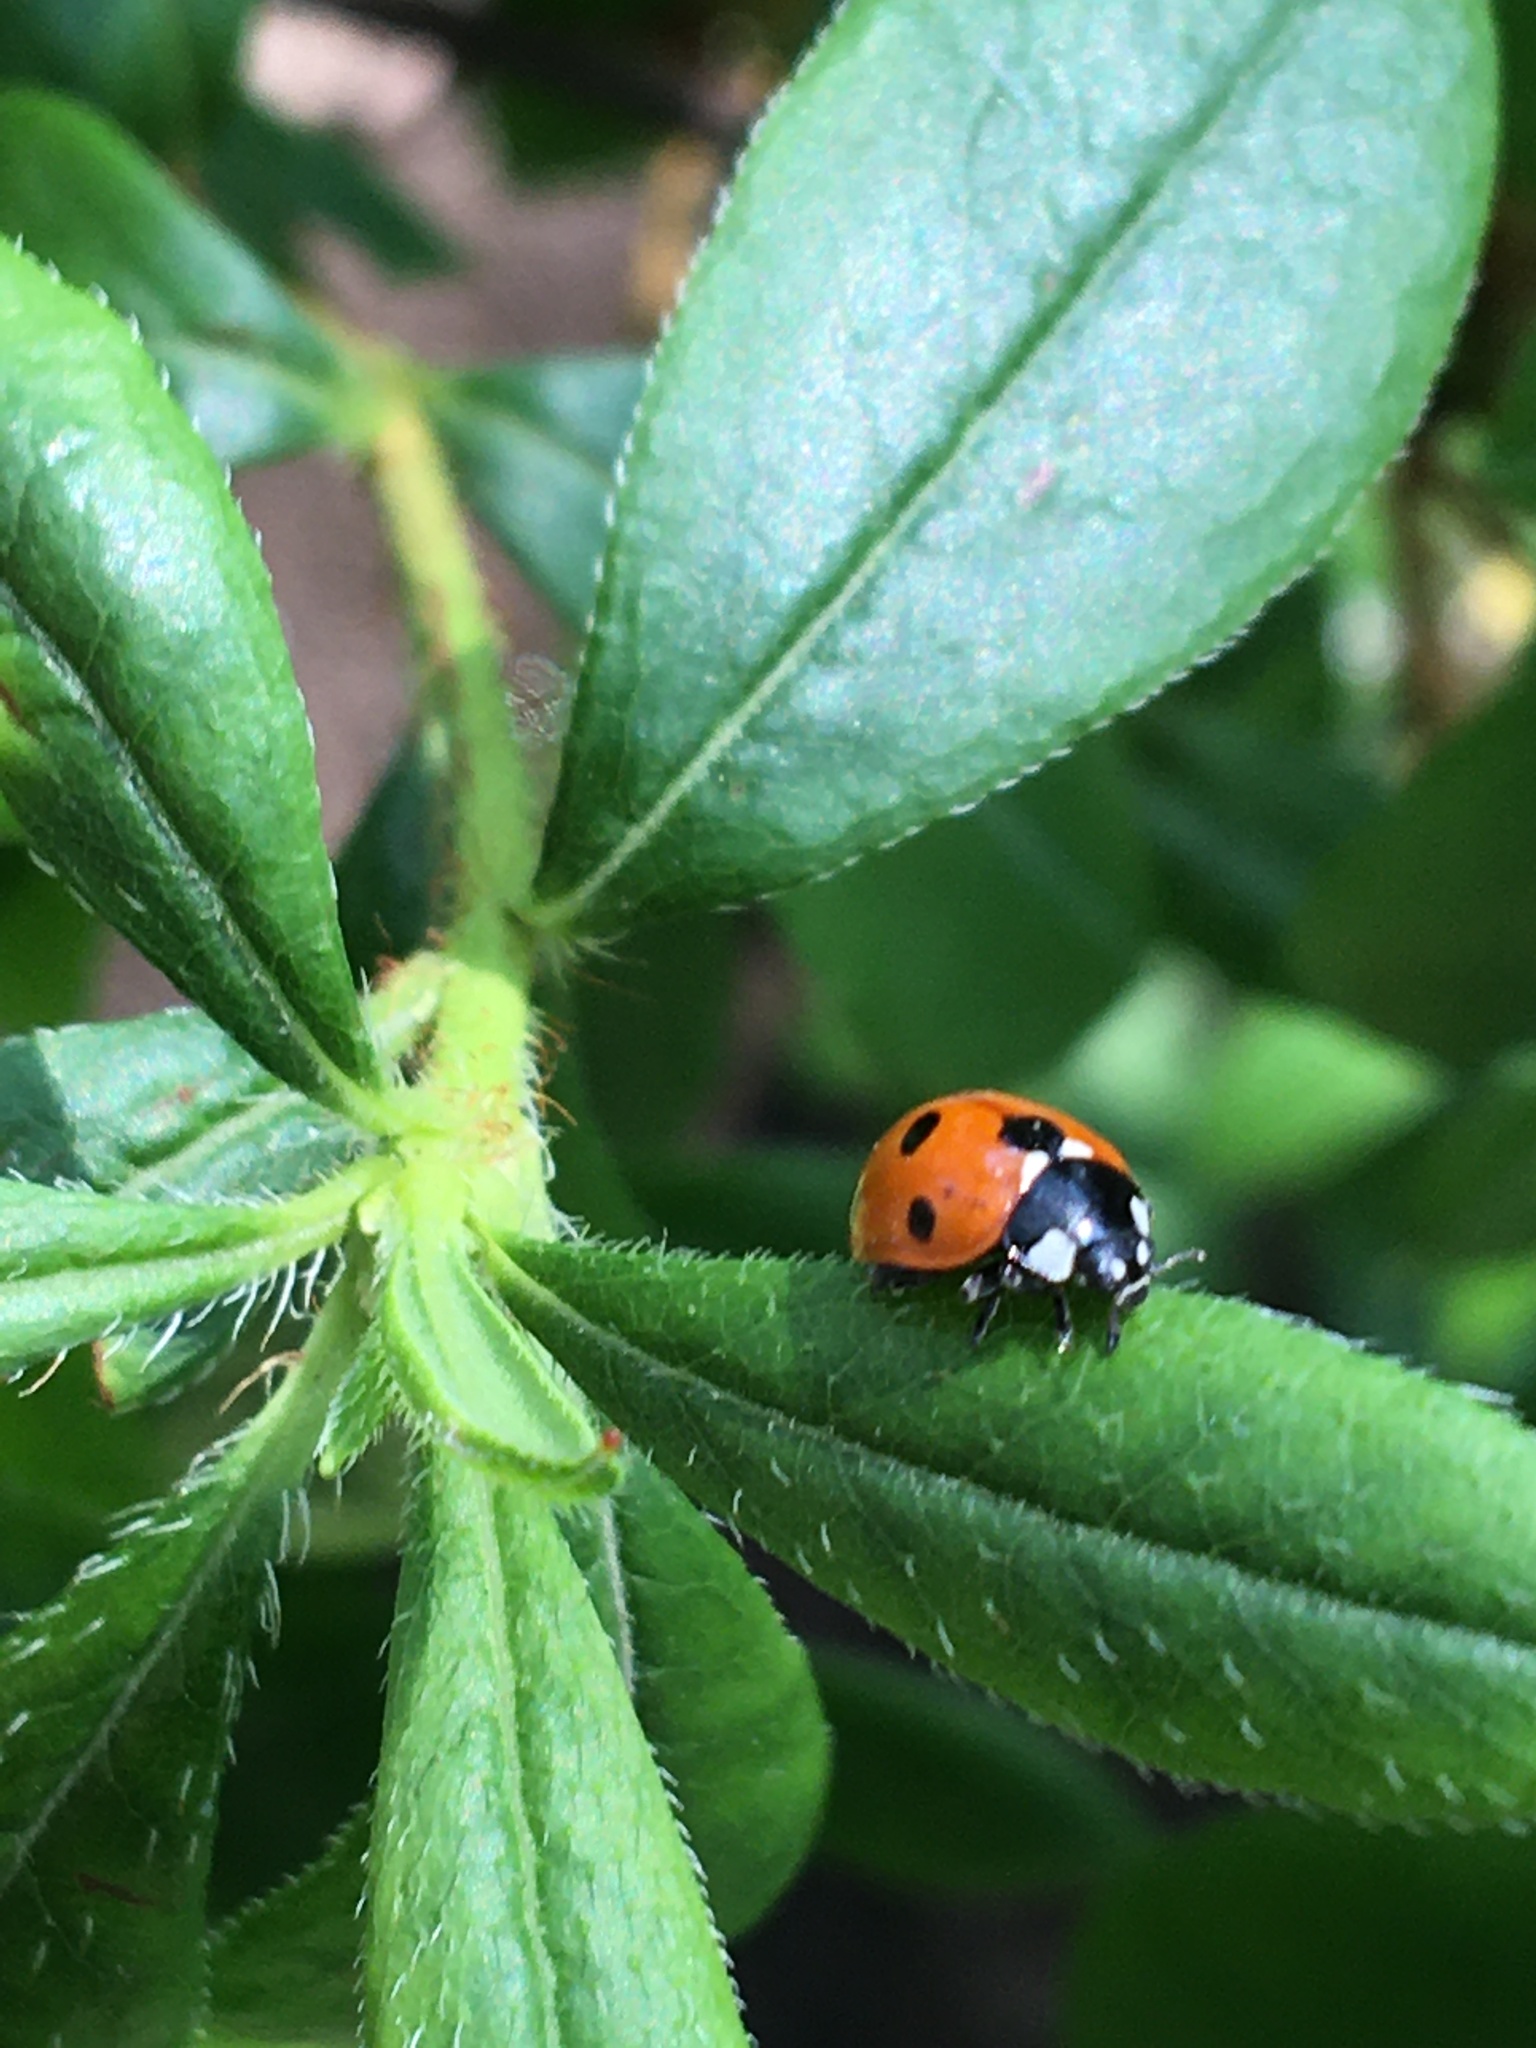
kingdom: Animalia
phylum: Arthropoda
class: Insecta
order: Coleoptera
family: Coccinellidae
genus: Coccinella
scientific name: Coccinella septempunctata
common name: Sevenspotted lady beetle
